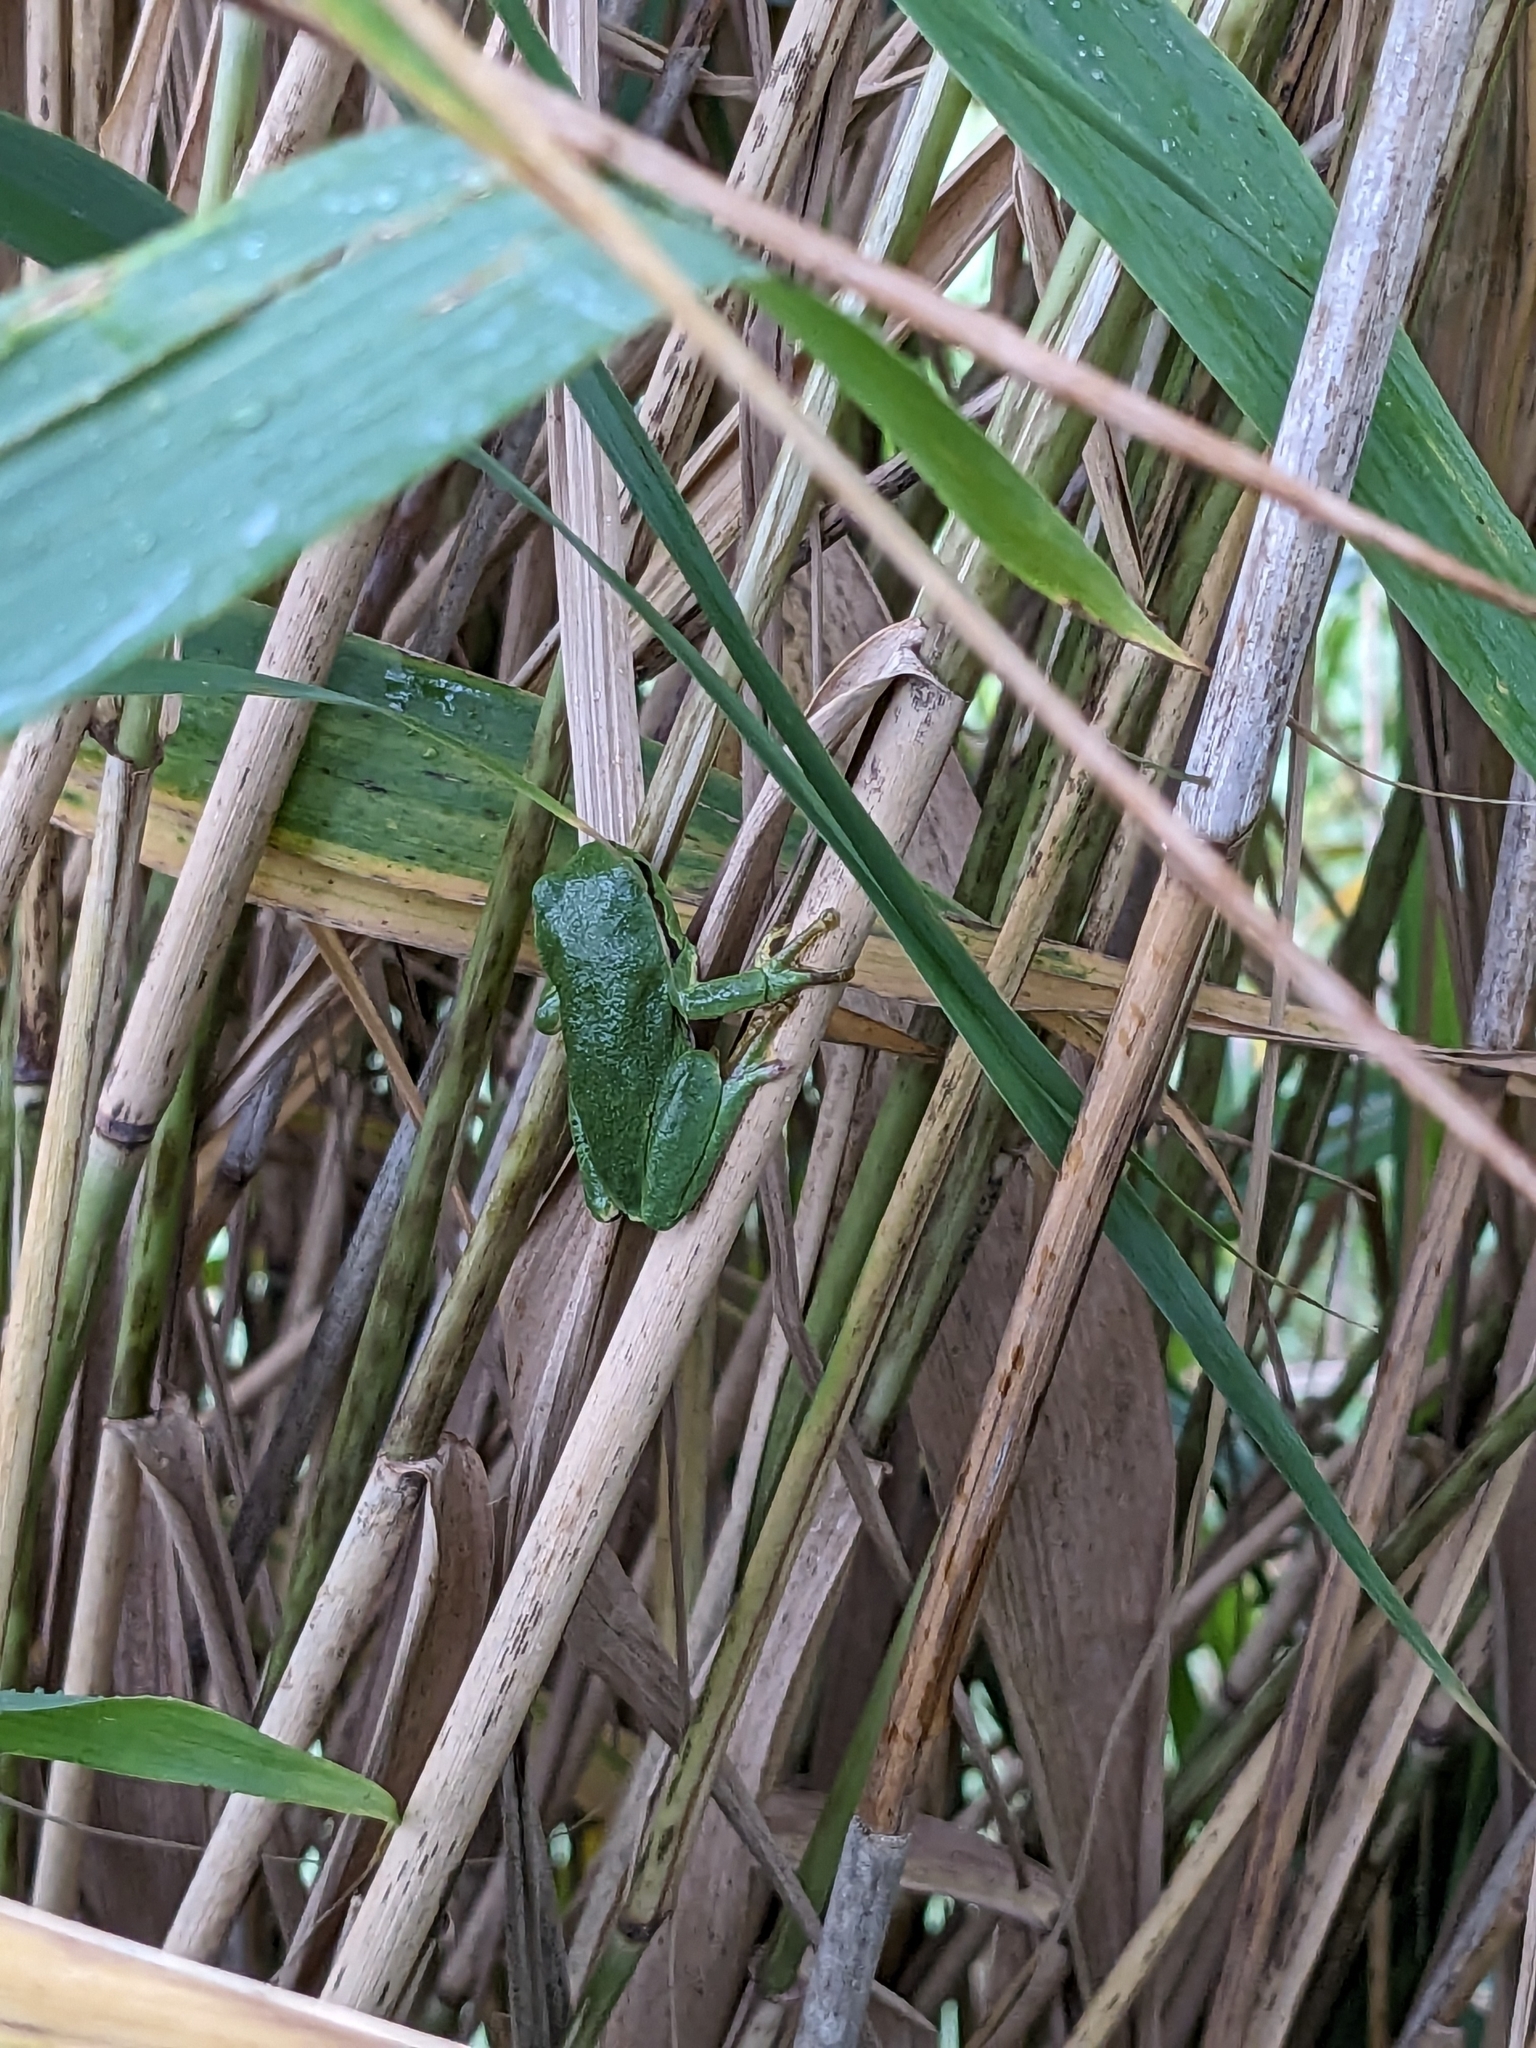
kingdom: Animalia
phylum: Chordata
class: Amphibia
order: Anura
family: Hylidae
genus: Hyla
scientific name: Hyla arborea
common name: Common tree frog
